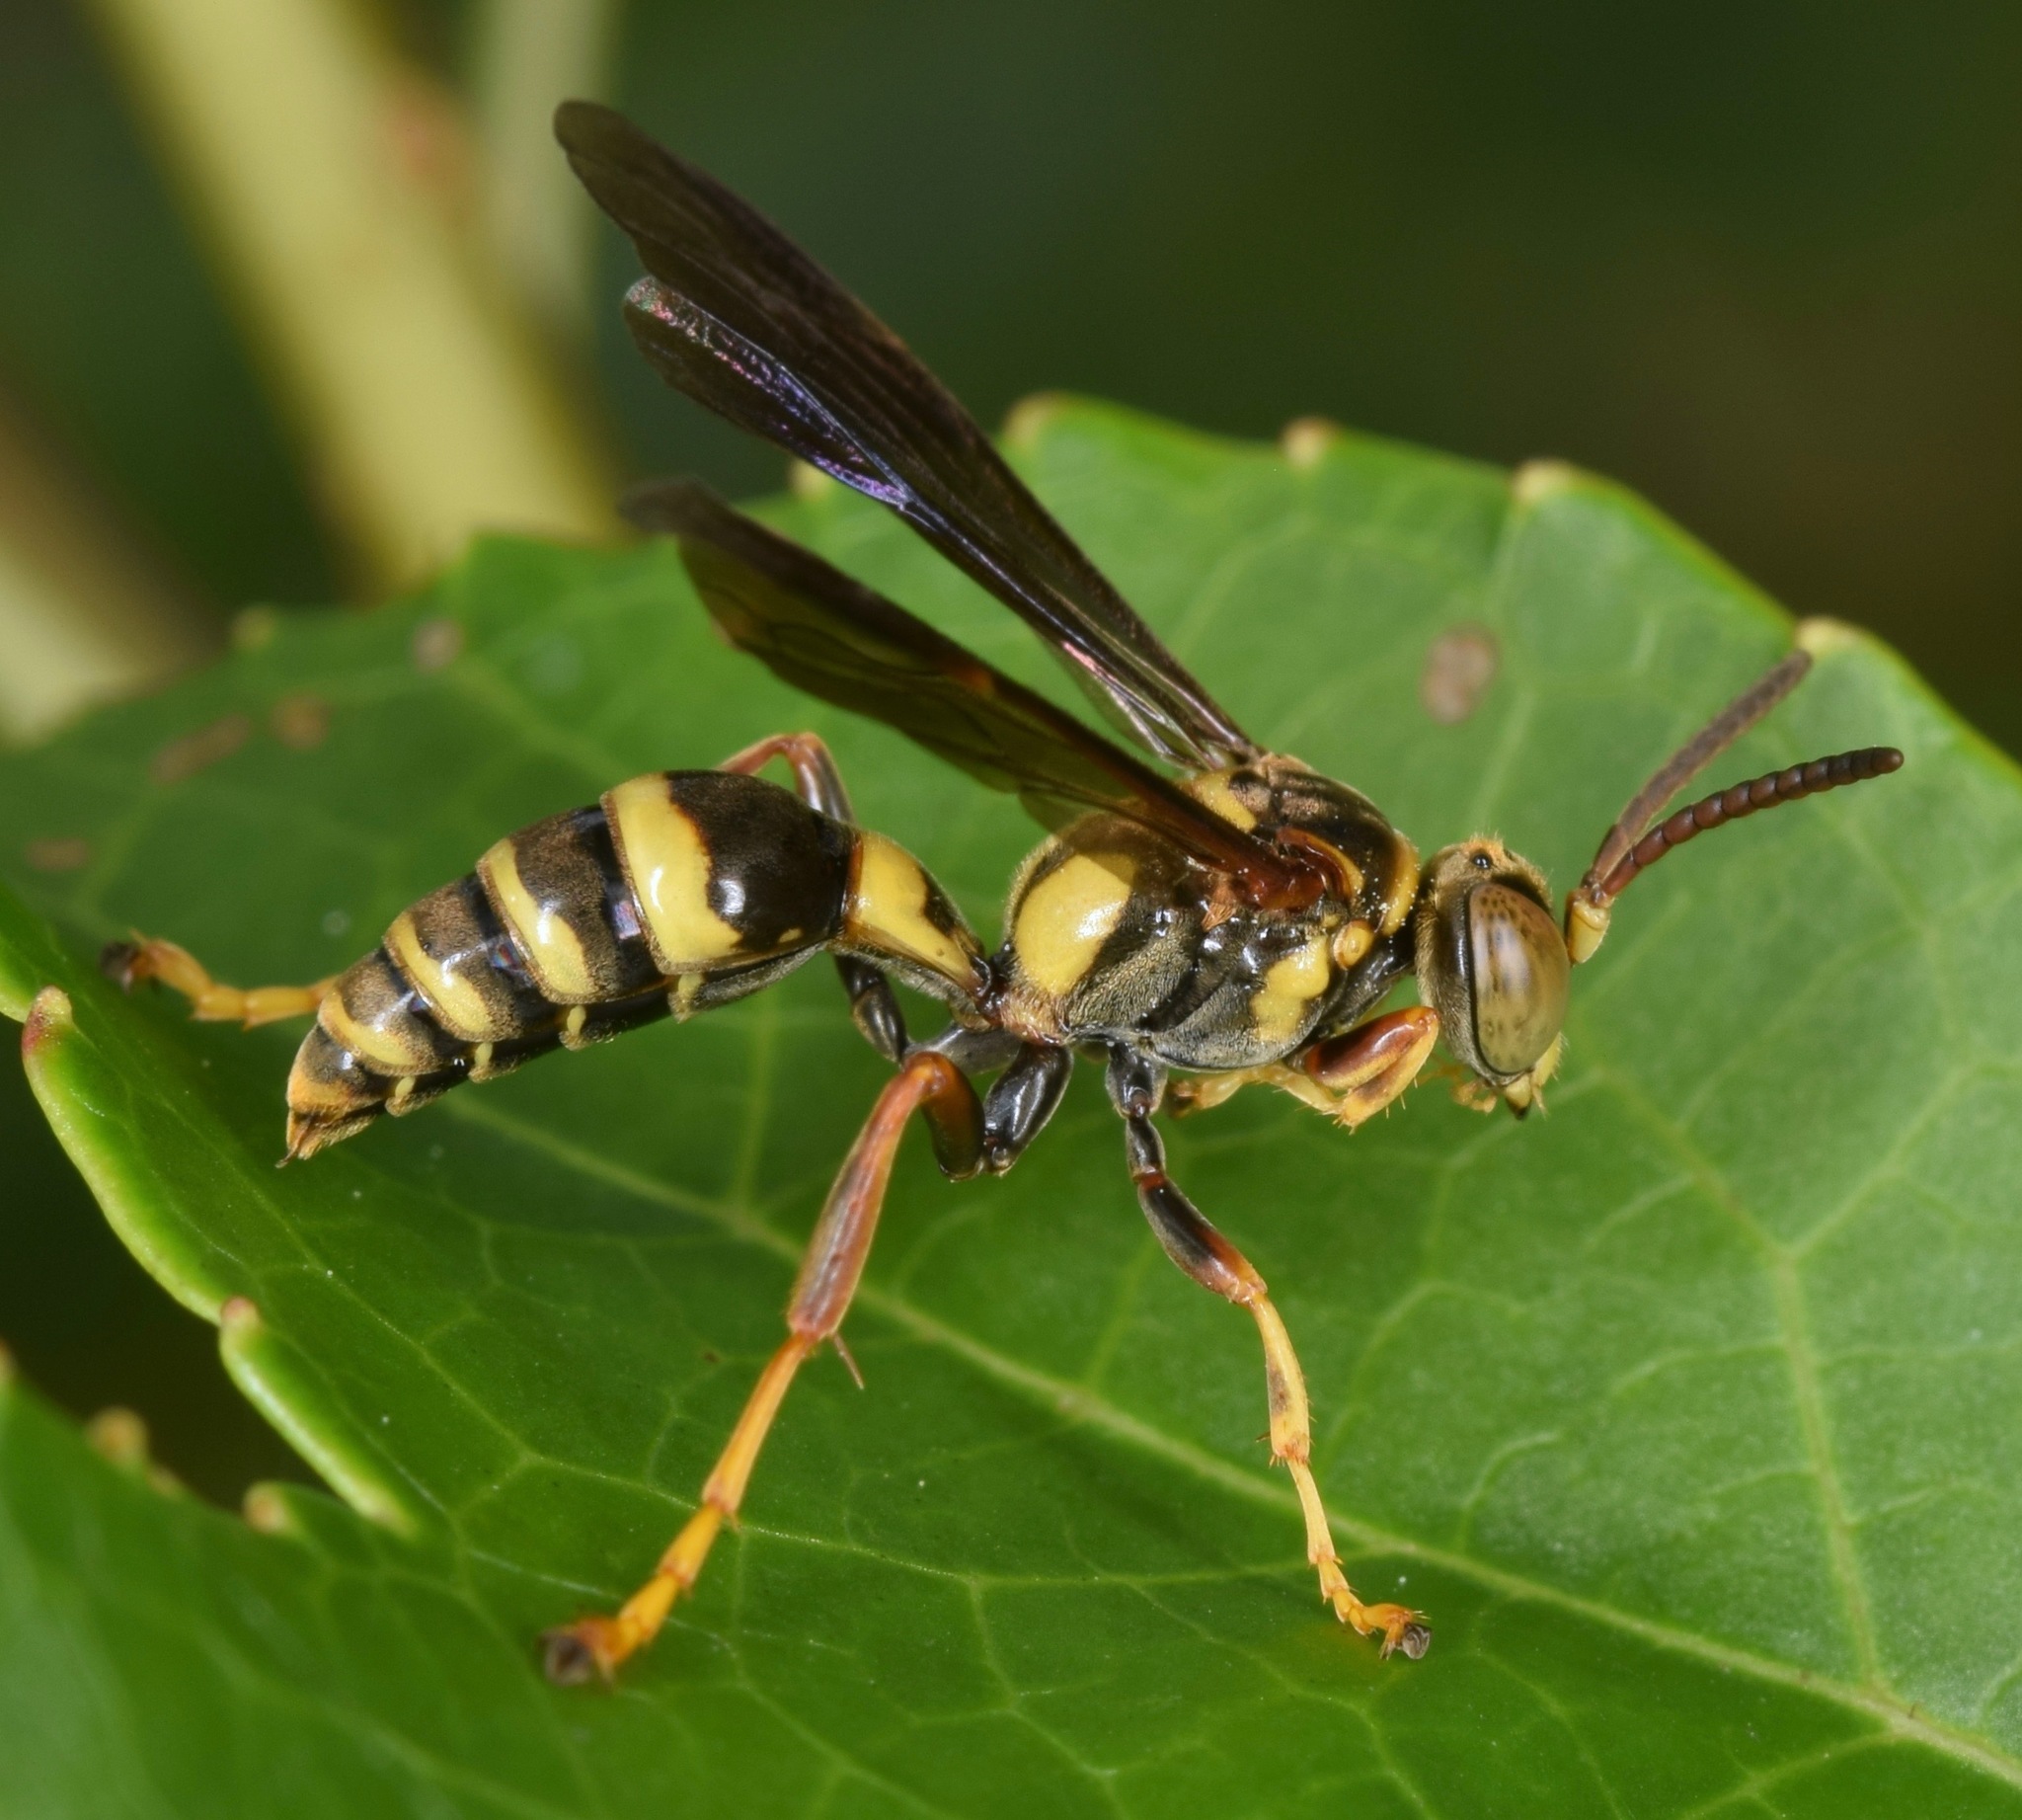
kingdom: Animalia
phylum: Arthropoda
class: Insecta
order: Hymenoptera
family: Crabronidae
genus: Saygorytes
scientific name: Saygorytes phaleratus
